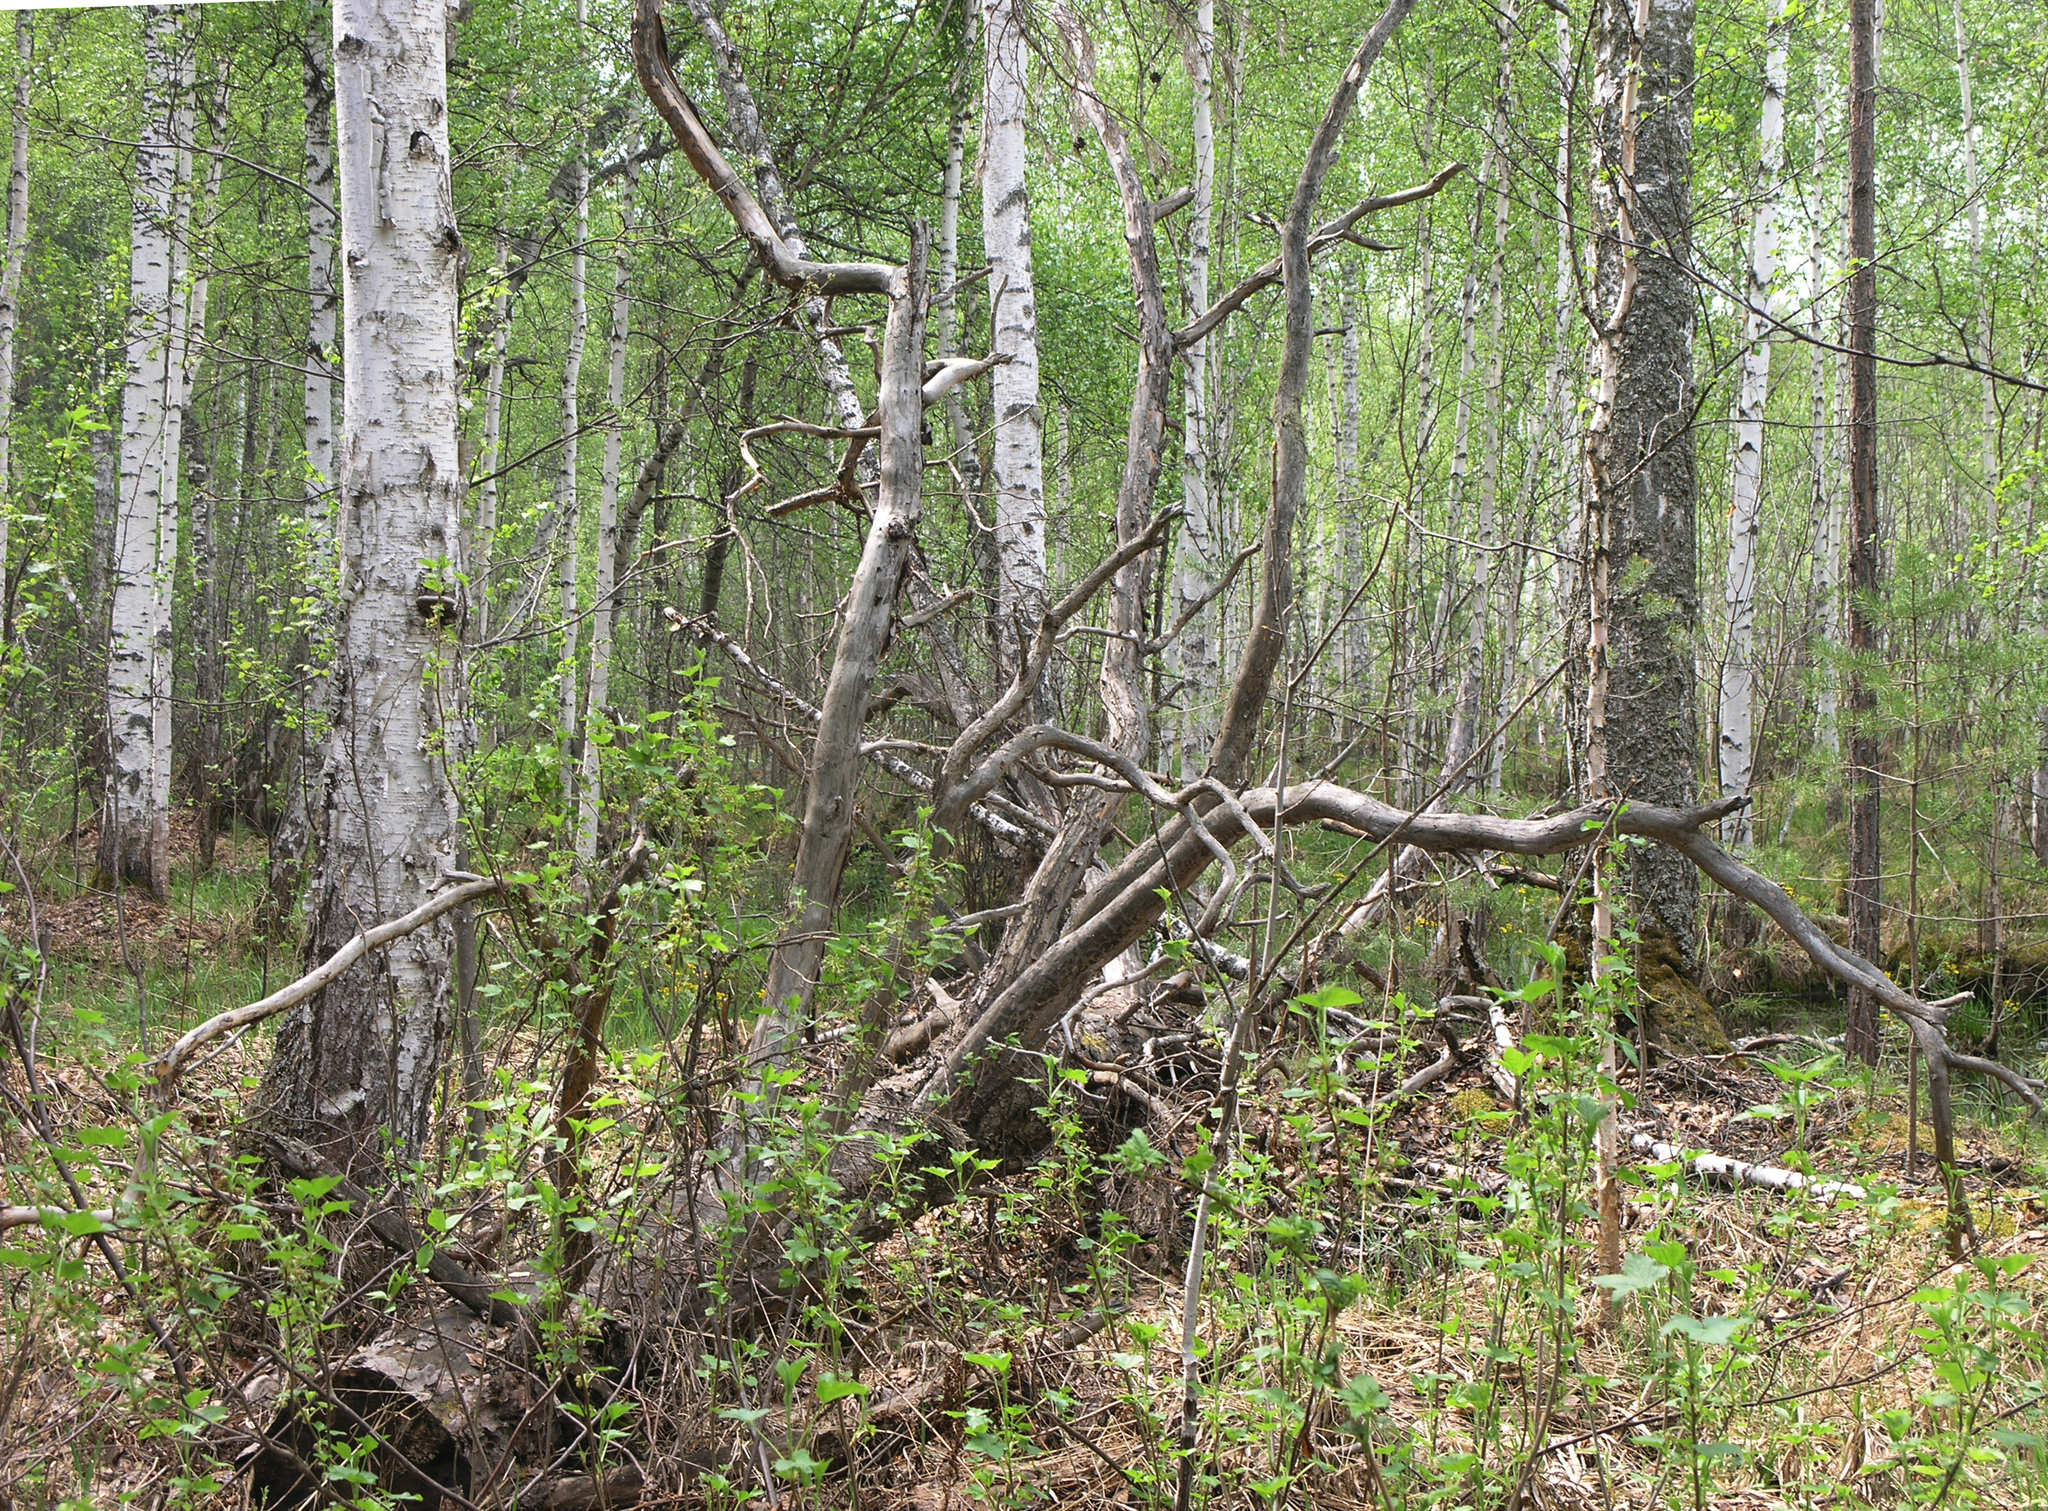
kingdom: Plantae
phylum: Tracheophyta
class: Pinopsida
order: Pinales
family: Pinaceae
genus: Pinus
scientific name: Pinus sylvestris
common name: Scots pine
